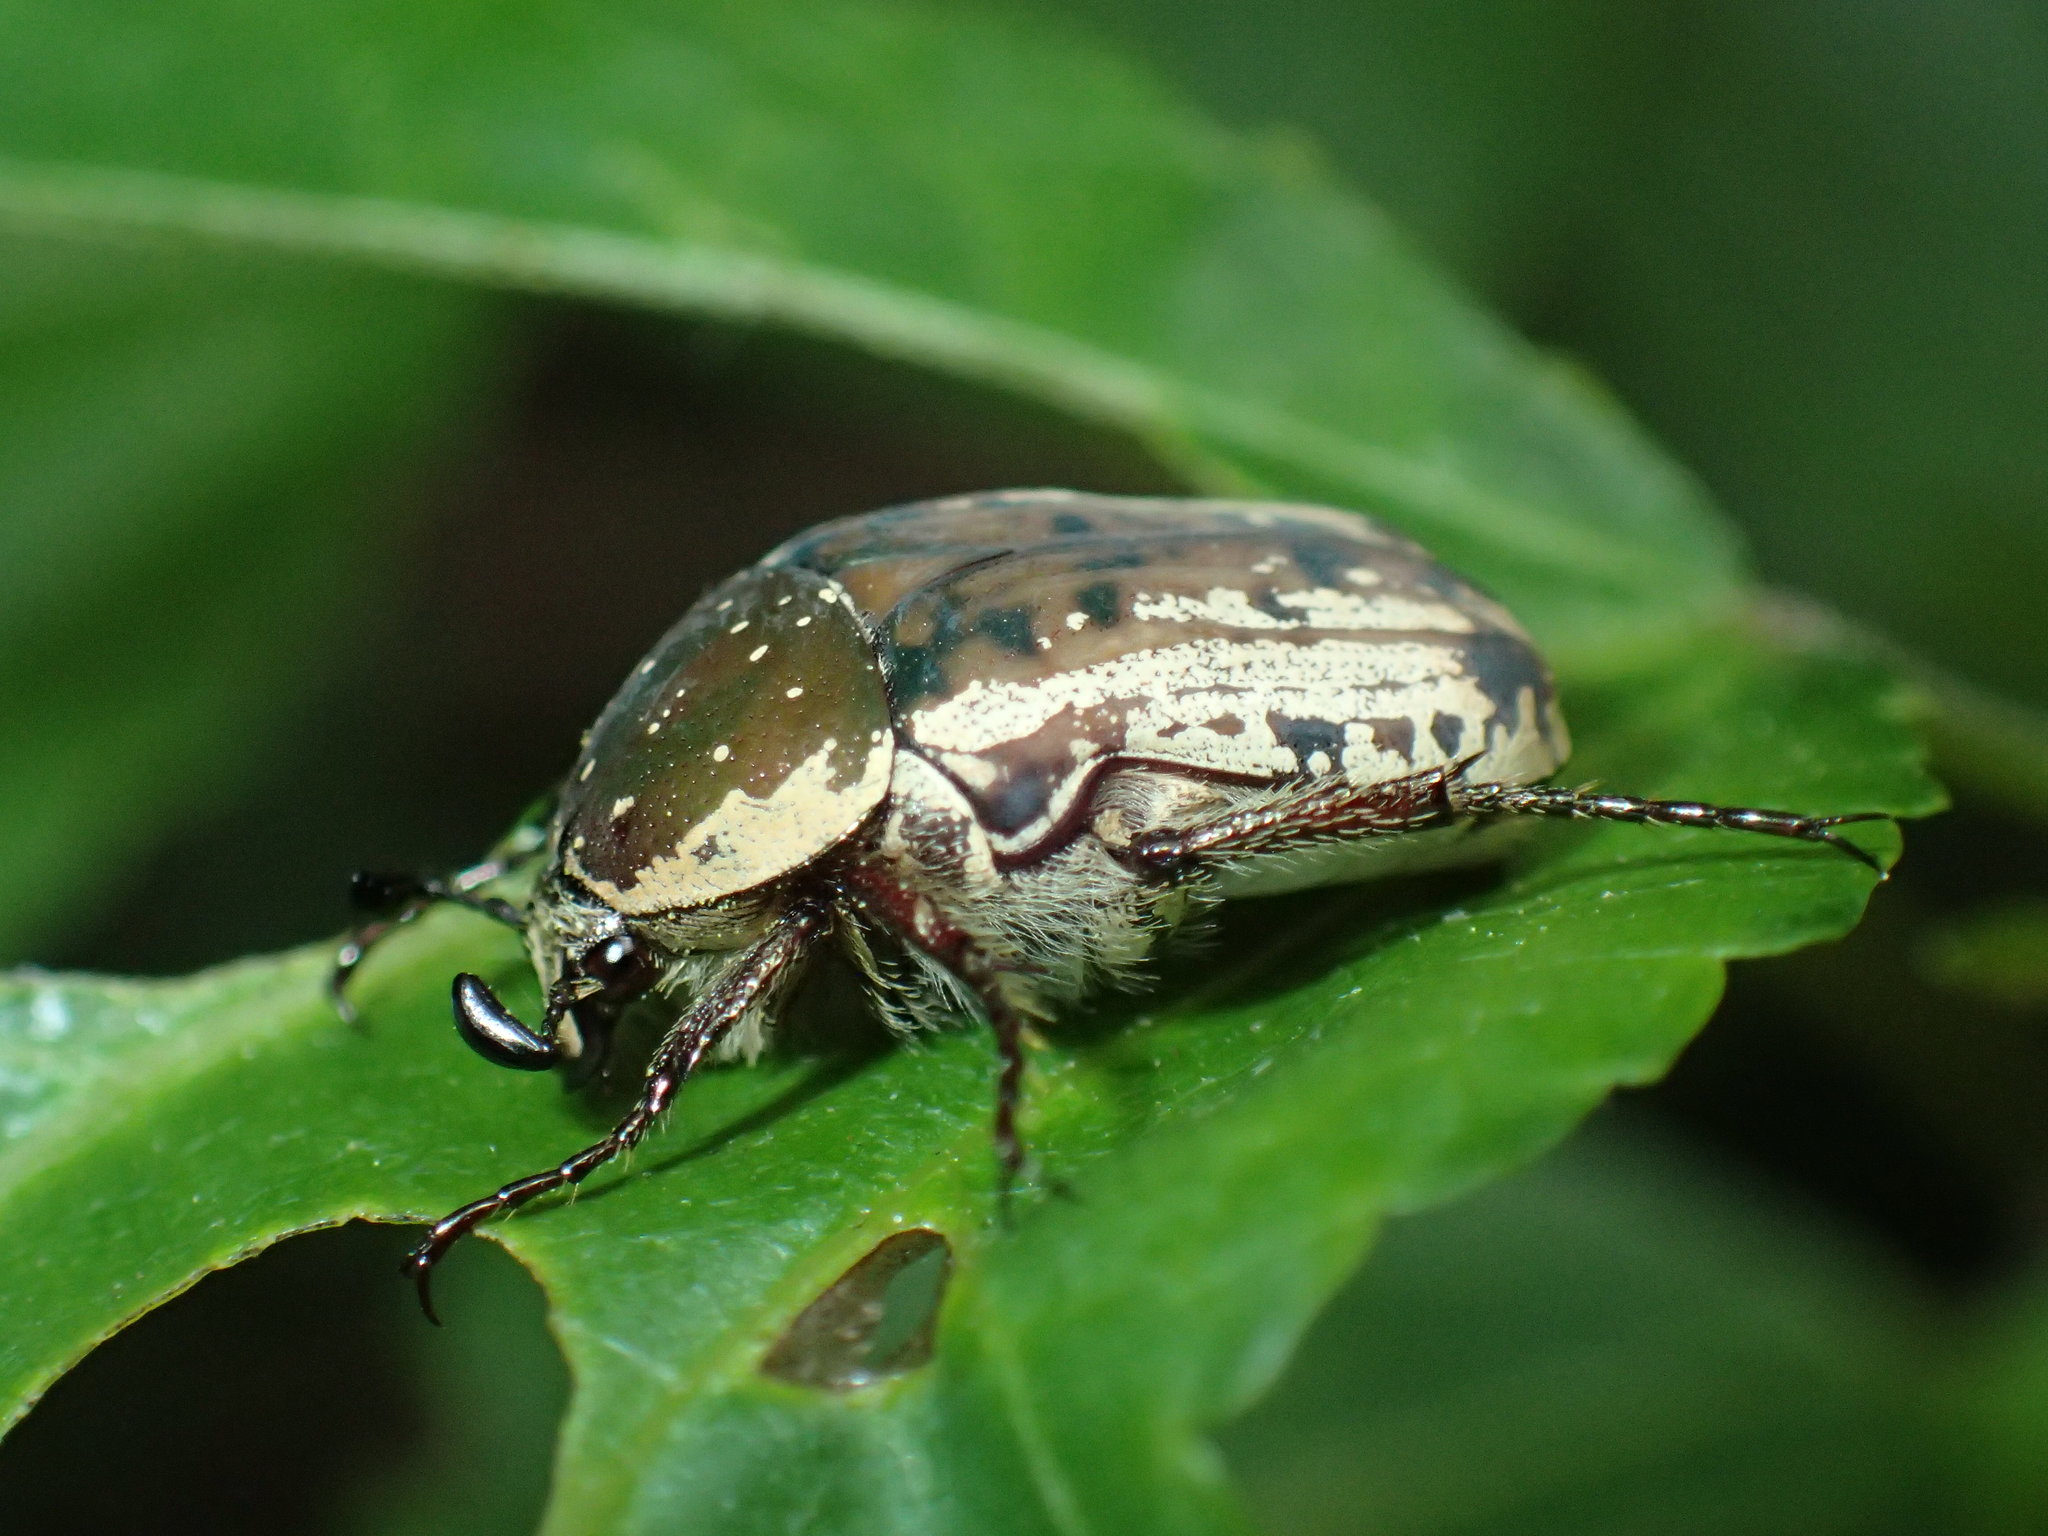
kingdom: Animalia
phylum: Arthropoda
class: Insecta
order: Coleoptera
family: Scarabaeidae
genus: Elaphinis
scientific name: Elaphinis irrorata
